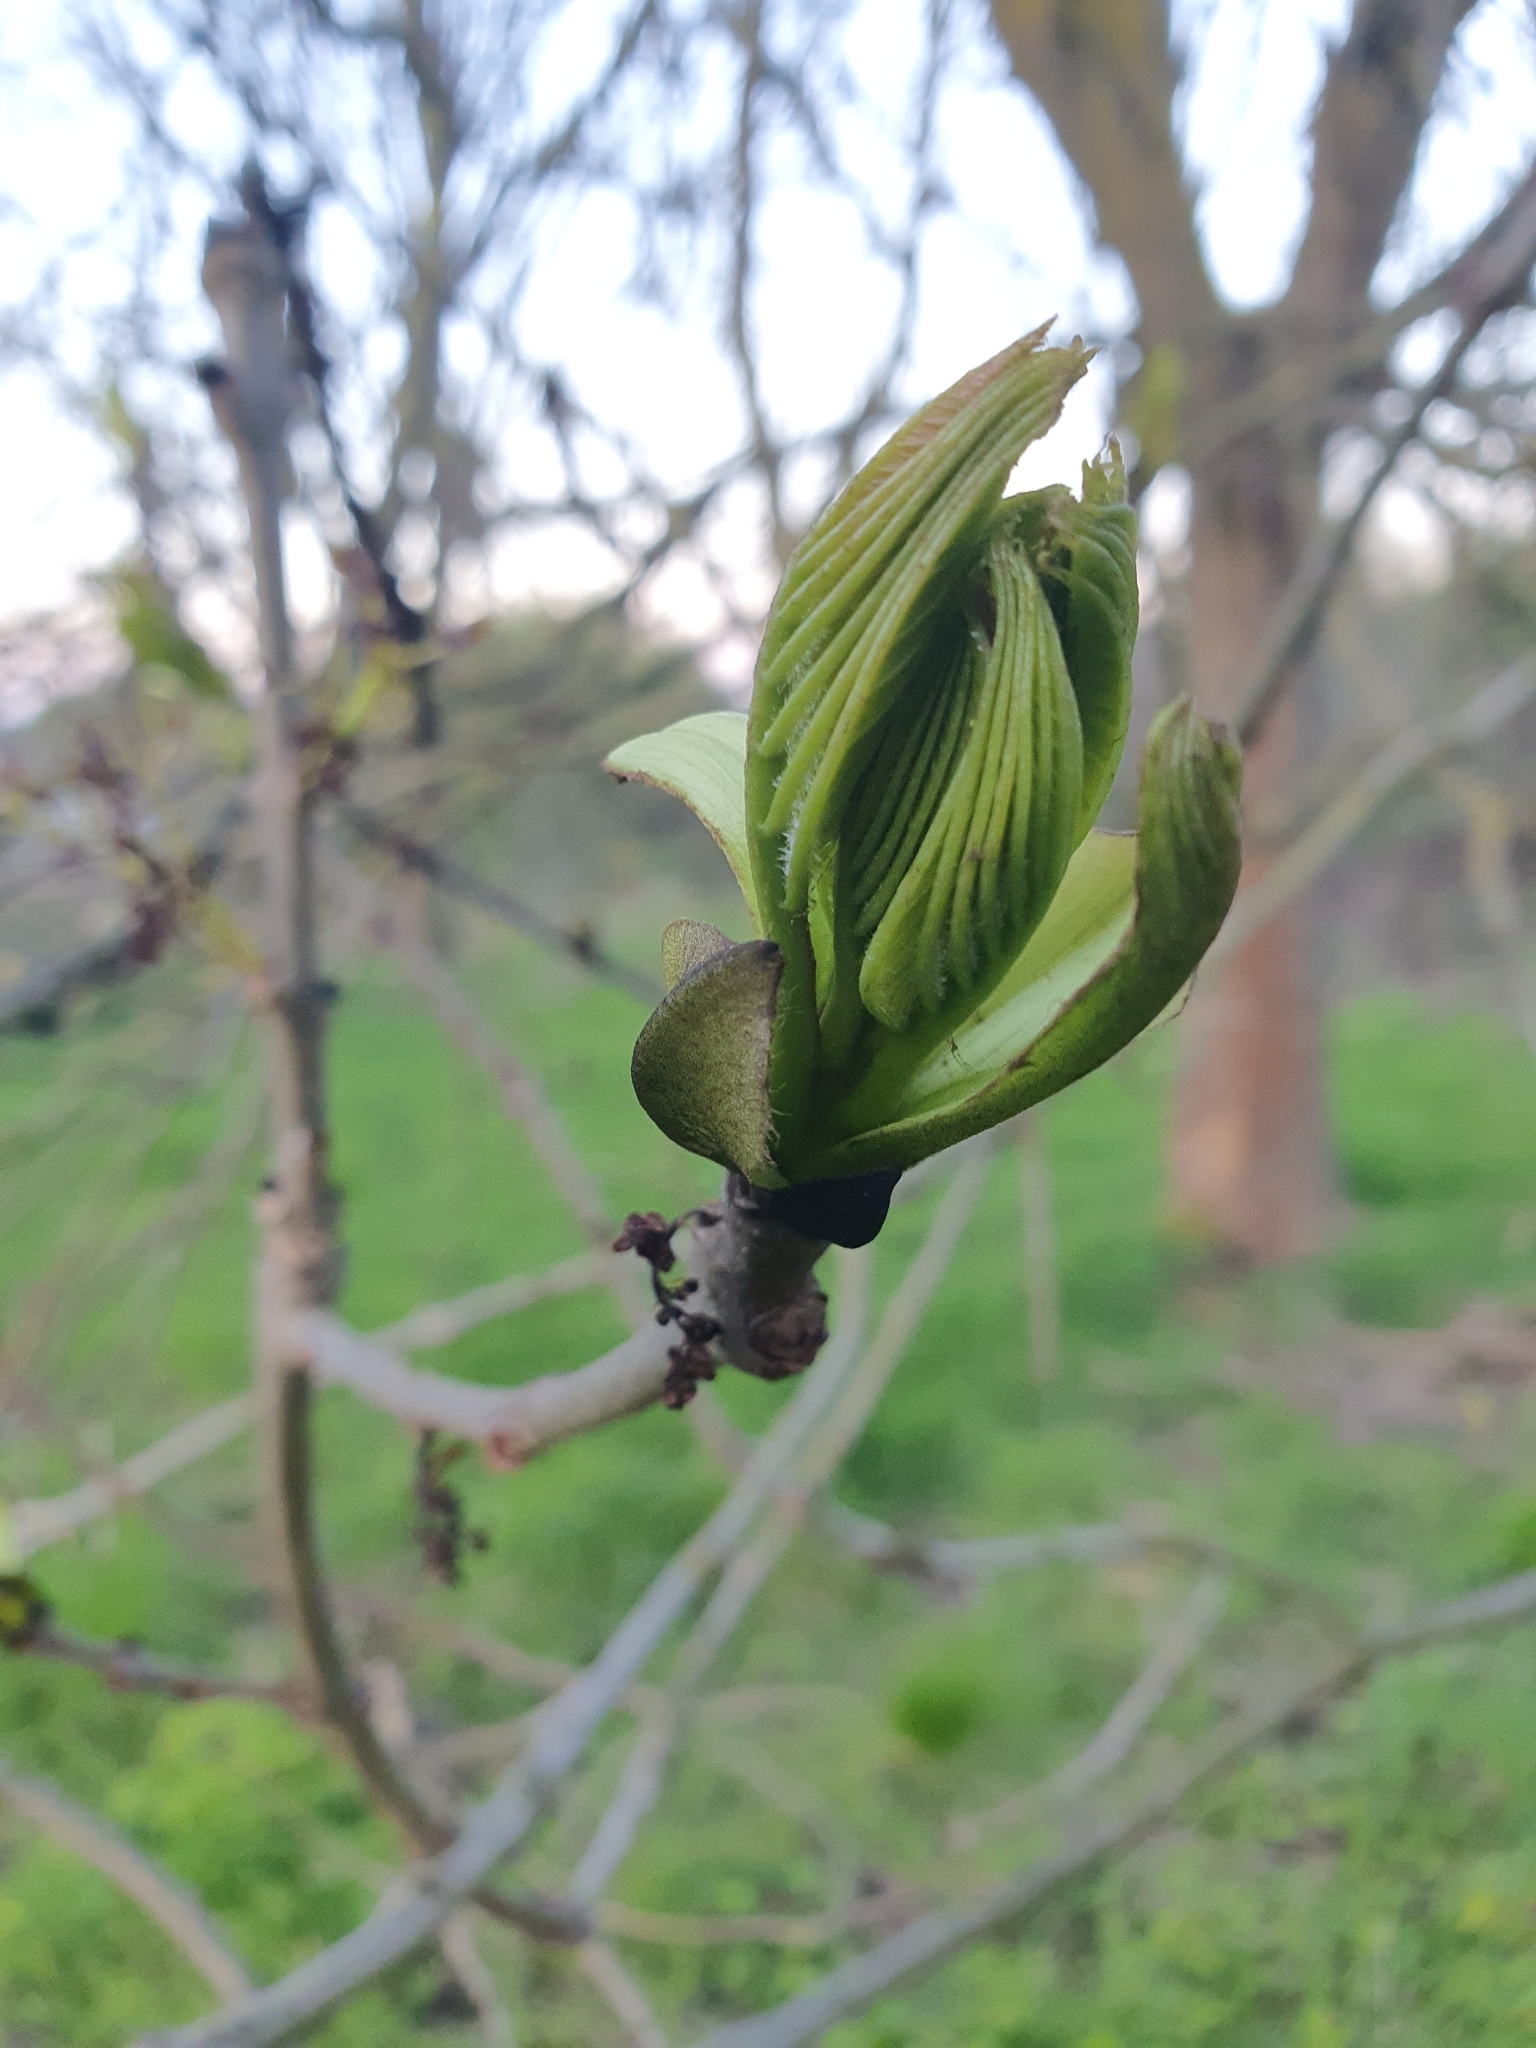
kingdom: Plantae
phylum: Tracheophyta
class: Magnoliopsida
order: Lamiales
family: Oleaceae
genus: Fraxinus
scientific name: Fraxinus excelsior
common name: European ash
